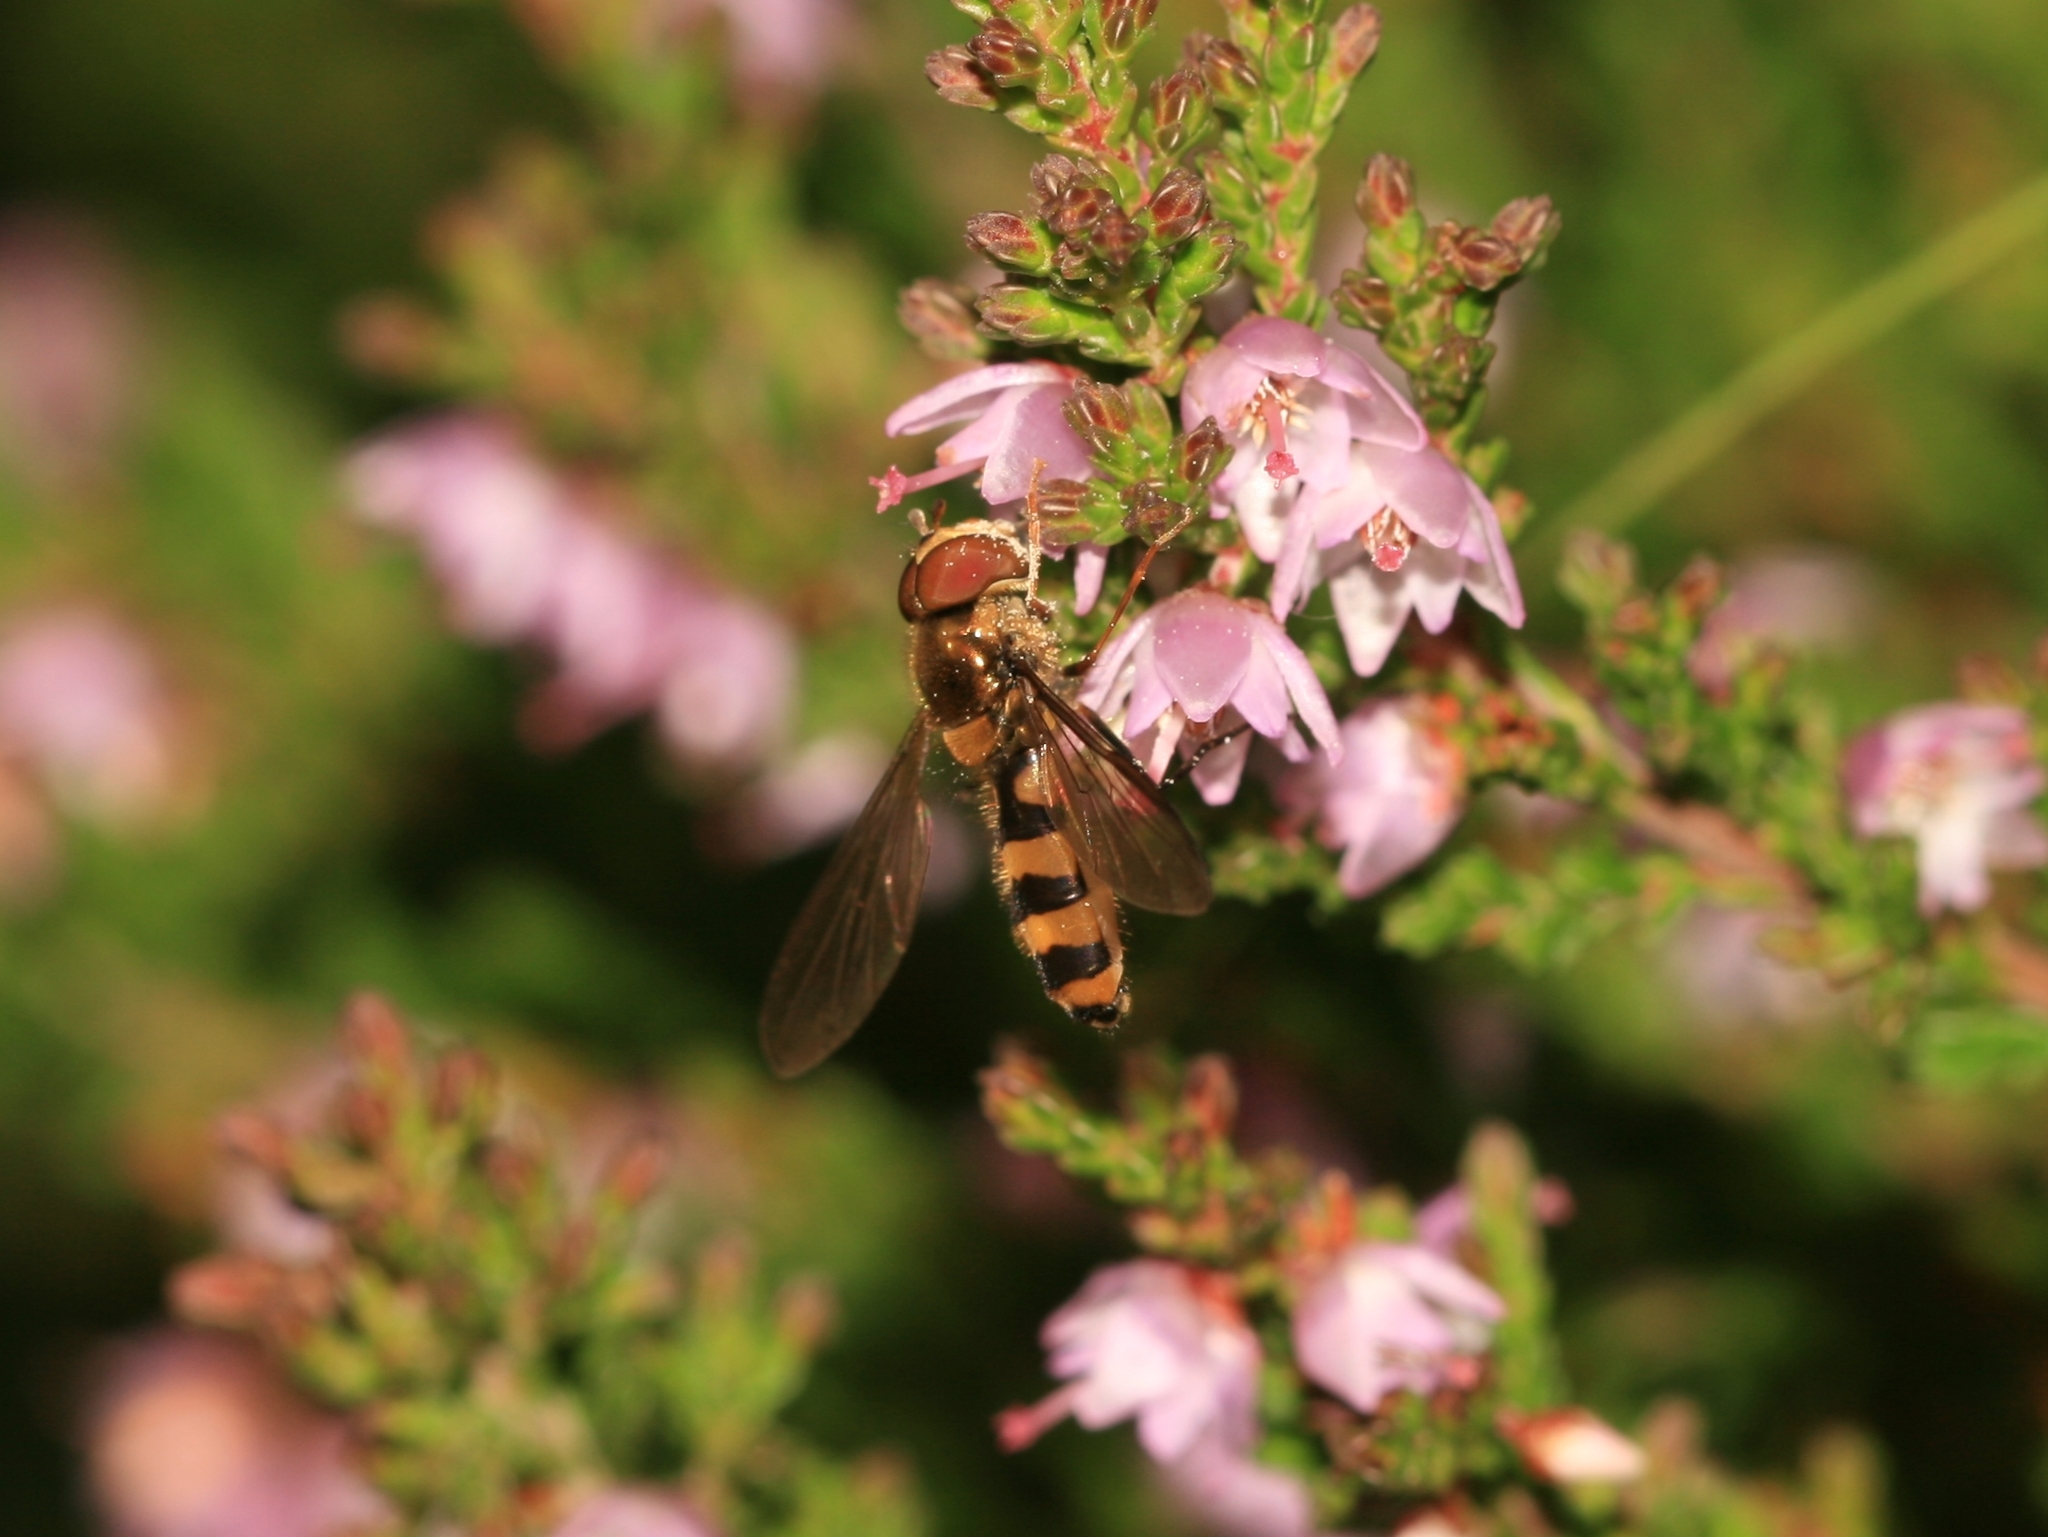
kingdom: Animalia
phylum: Arthropoda
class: Insecta
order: Diptera
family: Syrphidae
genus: Meliscaeva
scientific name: Meliscaeva cinctella
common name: American thintail fly
